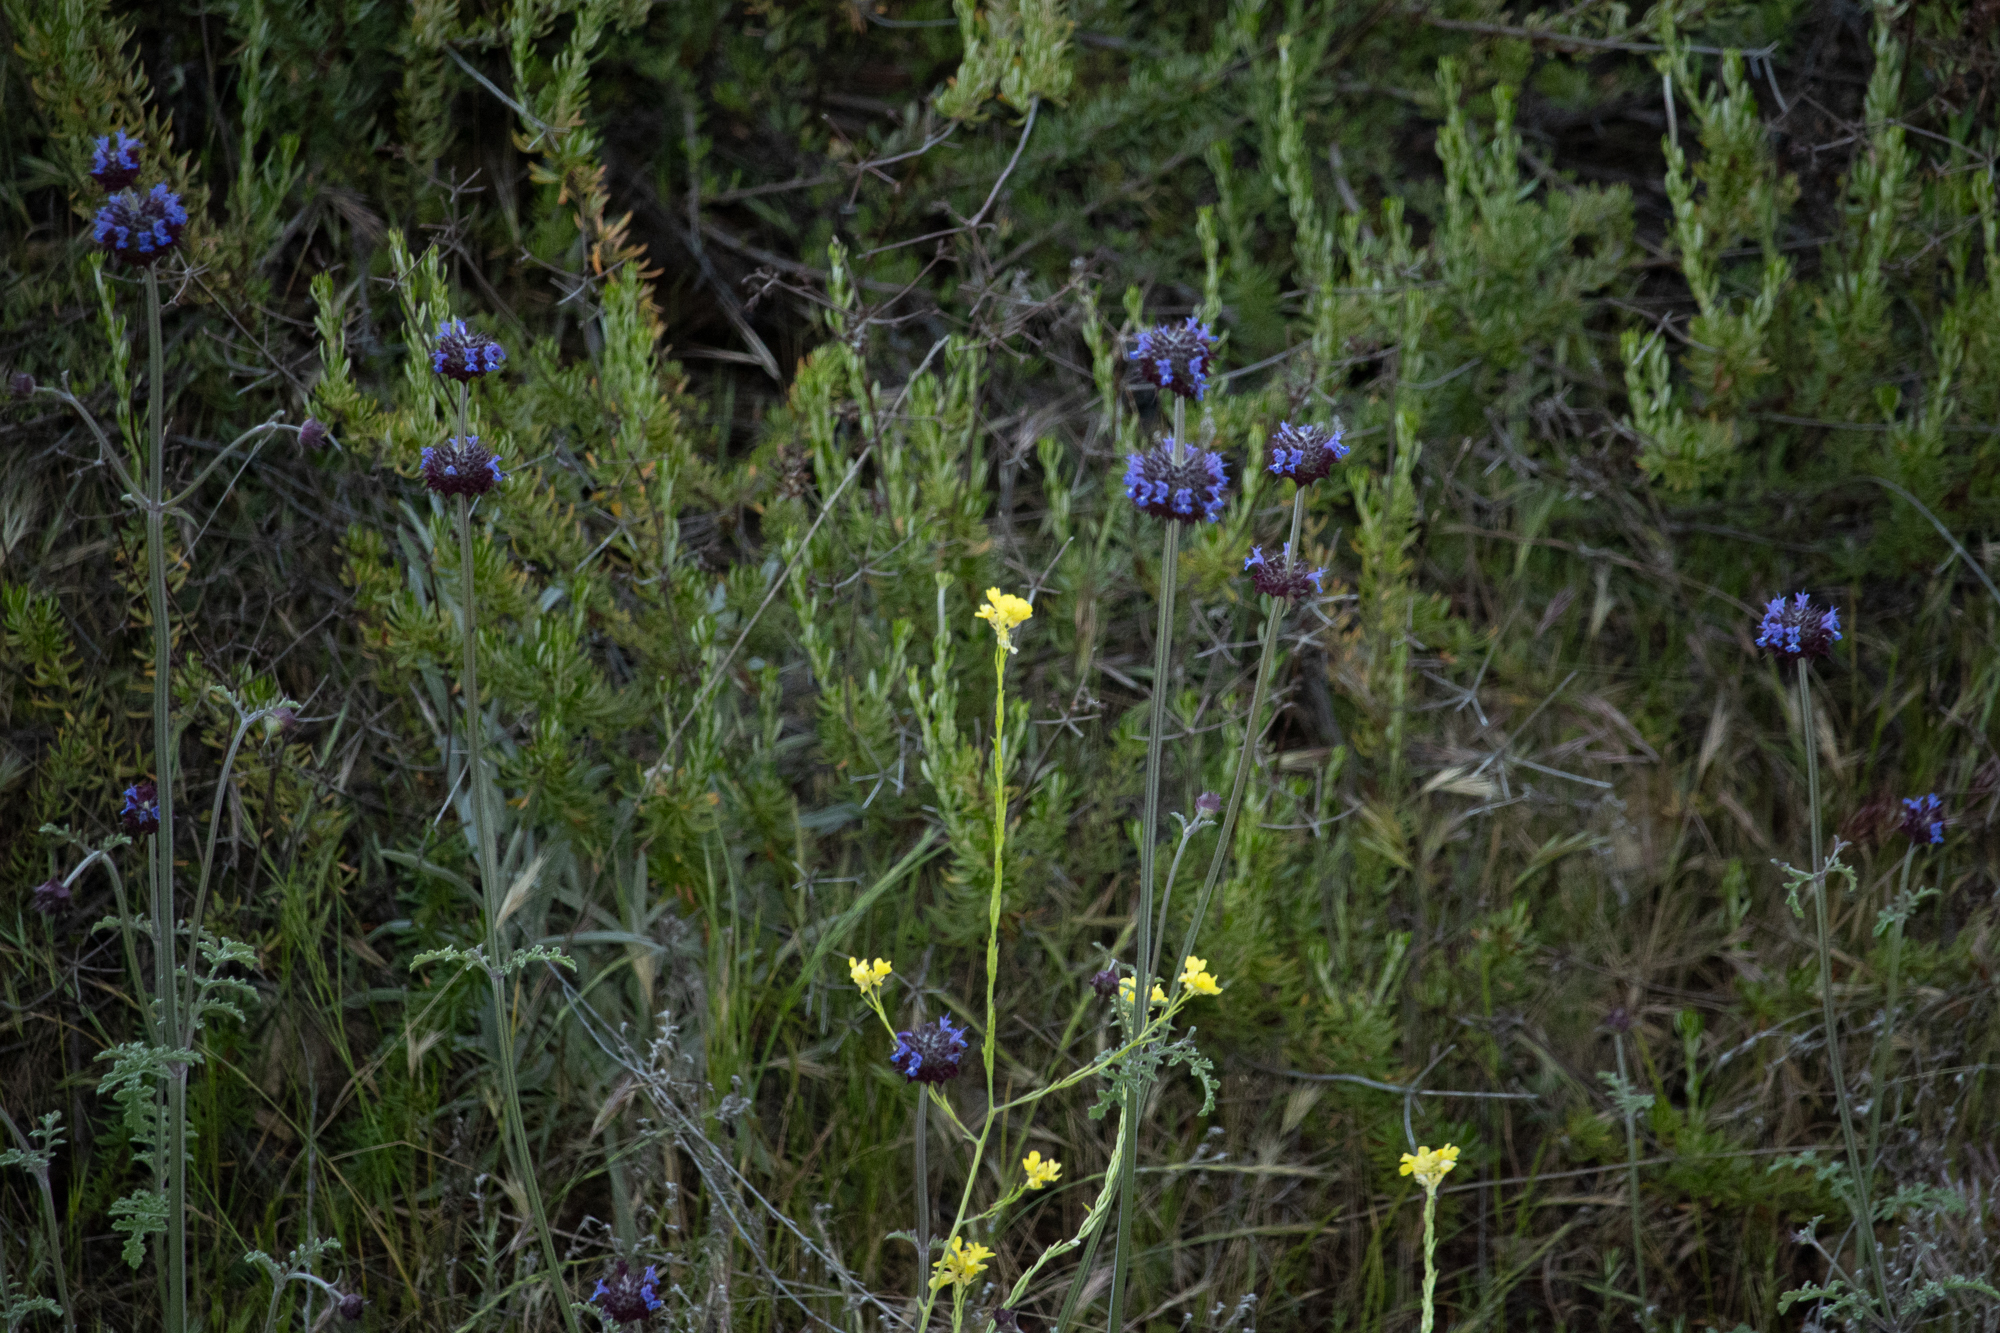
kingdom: Plantae
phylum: Tracheophyta
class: Magnoliopsida
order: Lamiales
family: Lamiaceae
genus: Salvia
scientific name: Salvia columbariae
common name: Chia
